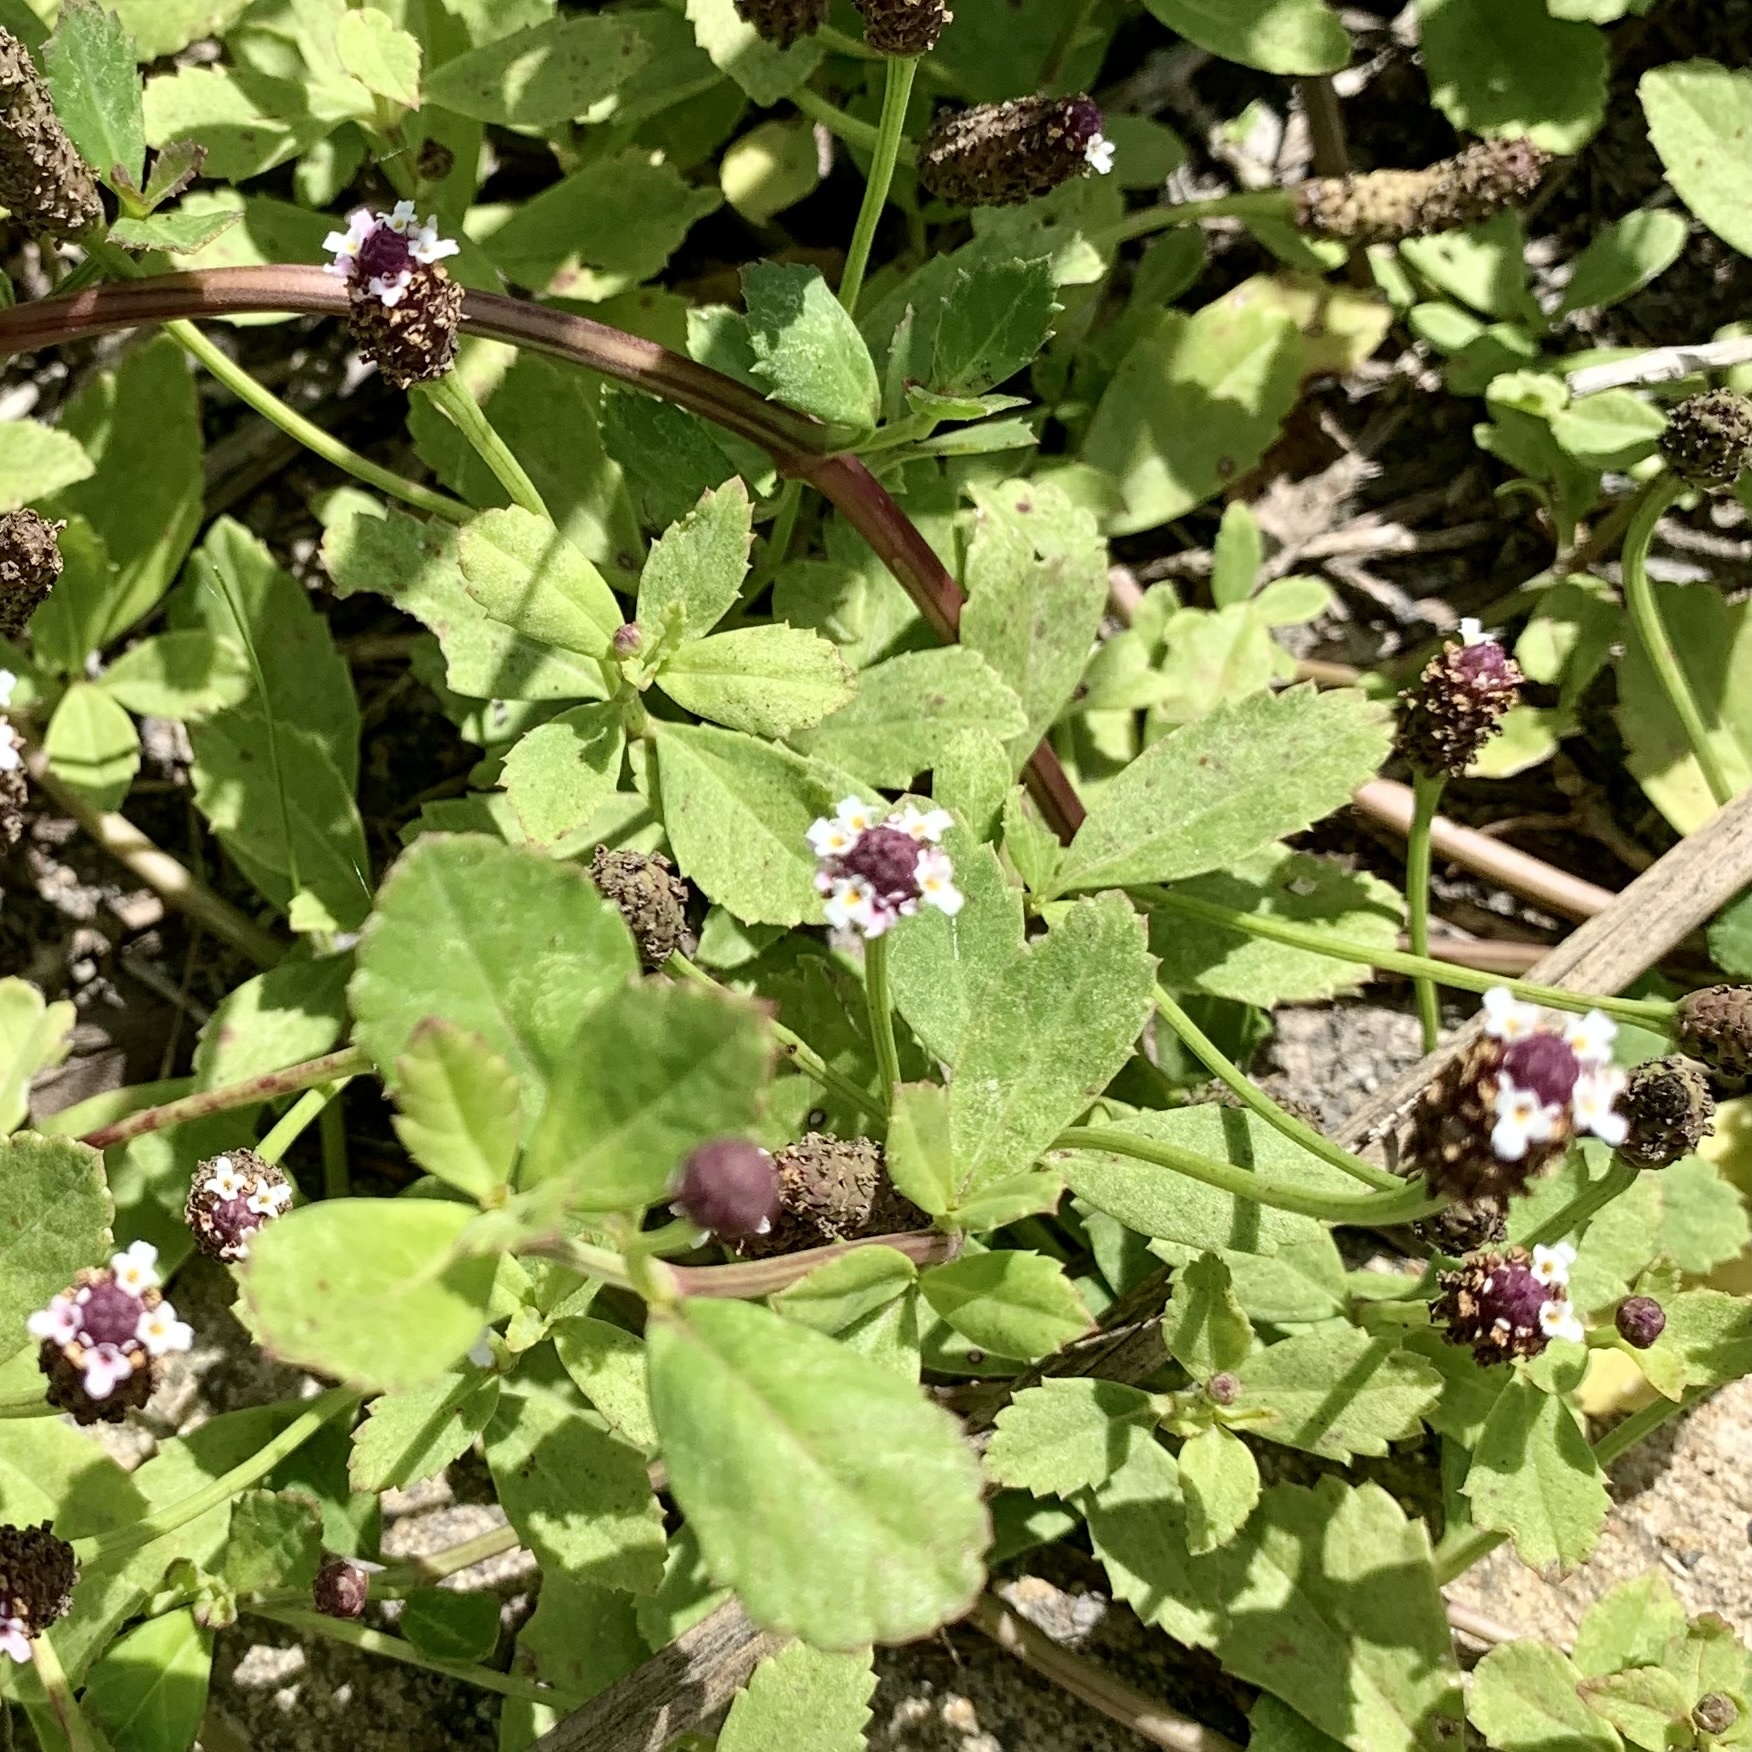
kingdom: Plantae
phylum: Tracheophyta
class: Magnoliopsida
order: Lamiales
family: Verbenaceae
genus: Phyla
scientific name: Phyla nodiflora
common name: Frogfruit
